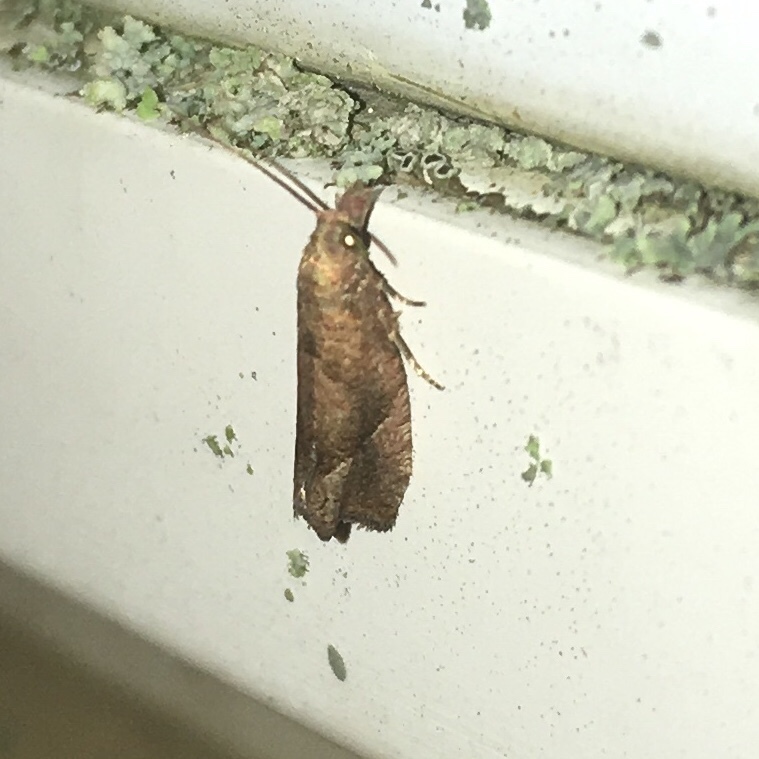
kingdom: Animalia
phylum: Arthropoda
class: Insecta
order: Lepidoptera
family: Tortricidae
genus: Pelochrista
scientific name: Pelochrista derelicta
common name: Derelict pelochrista moth
